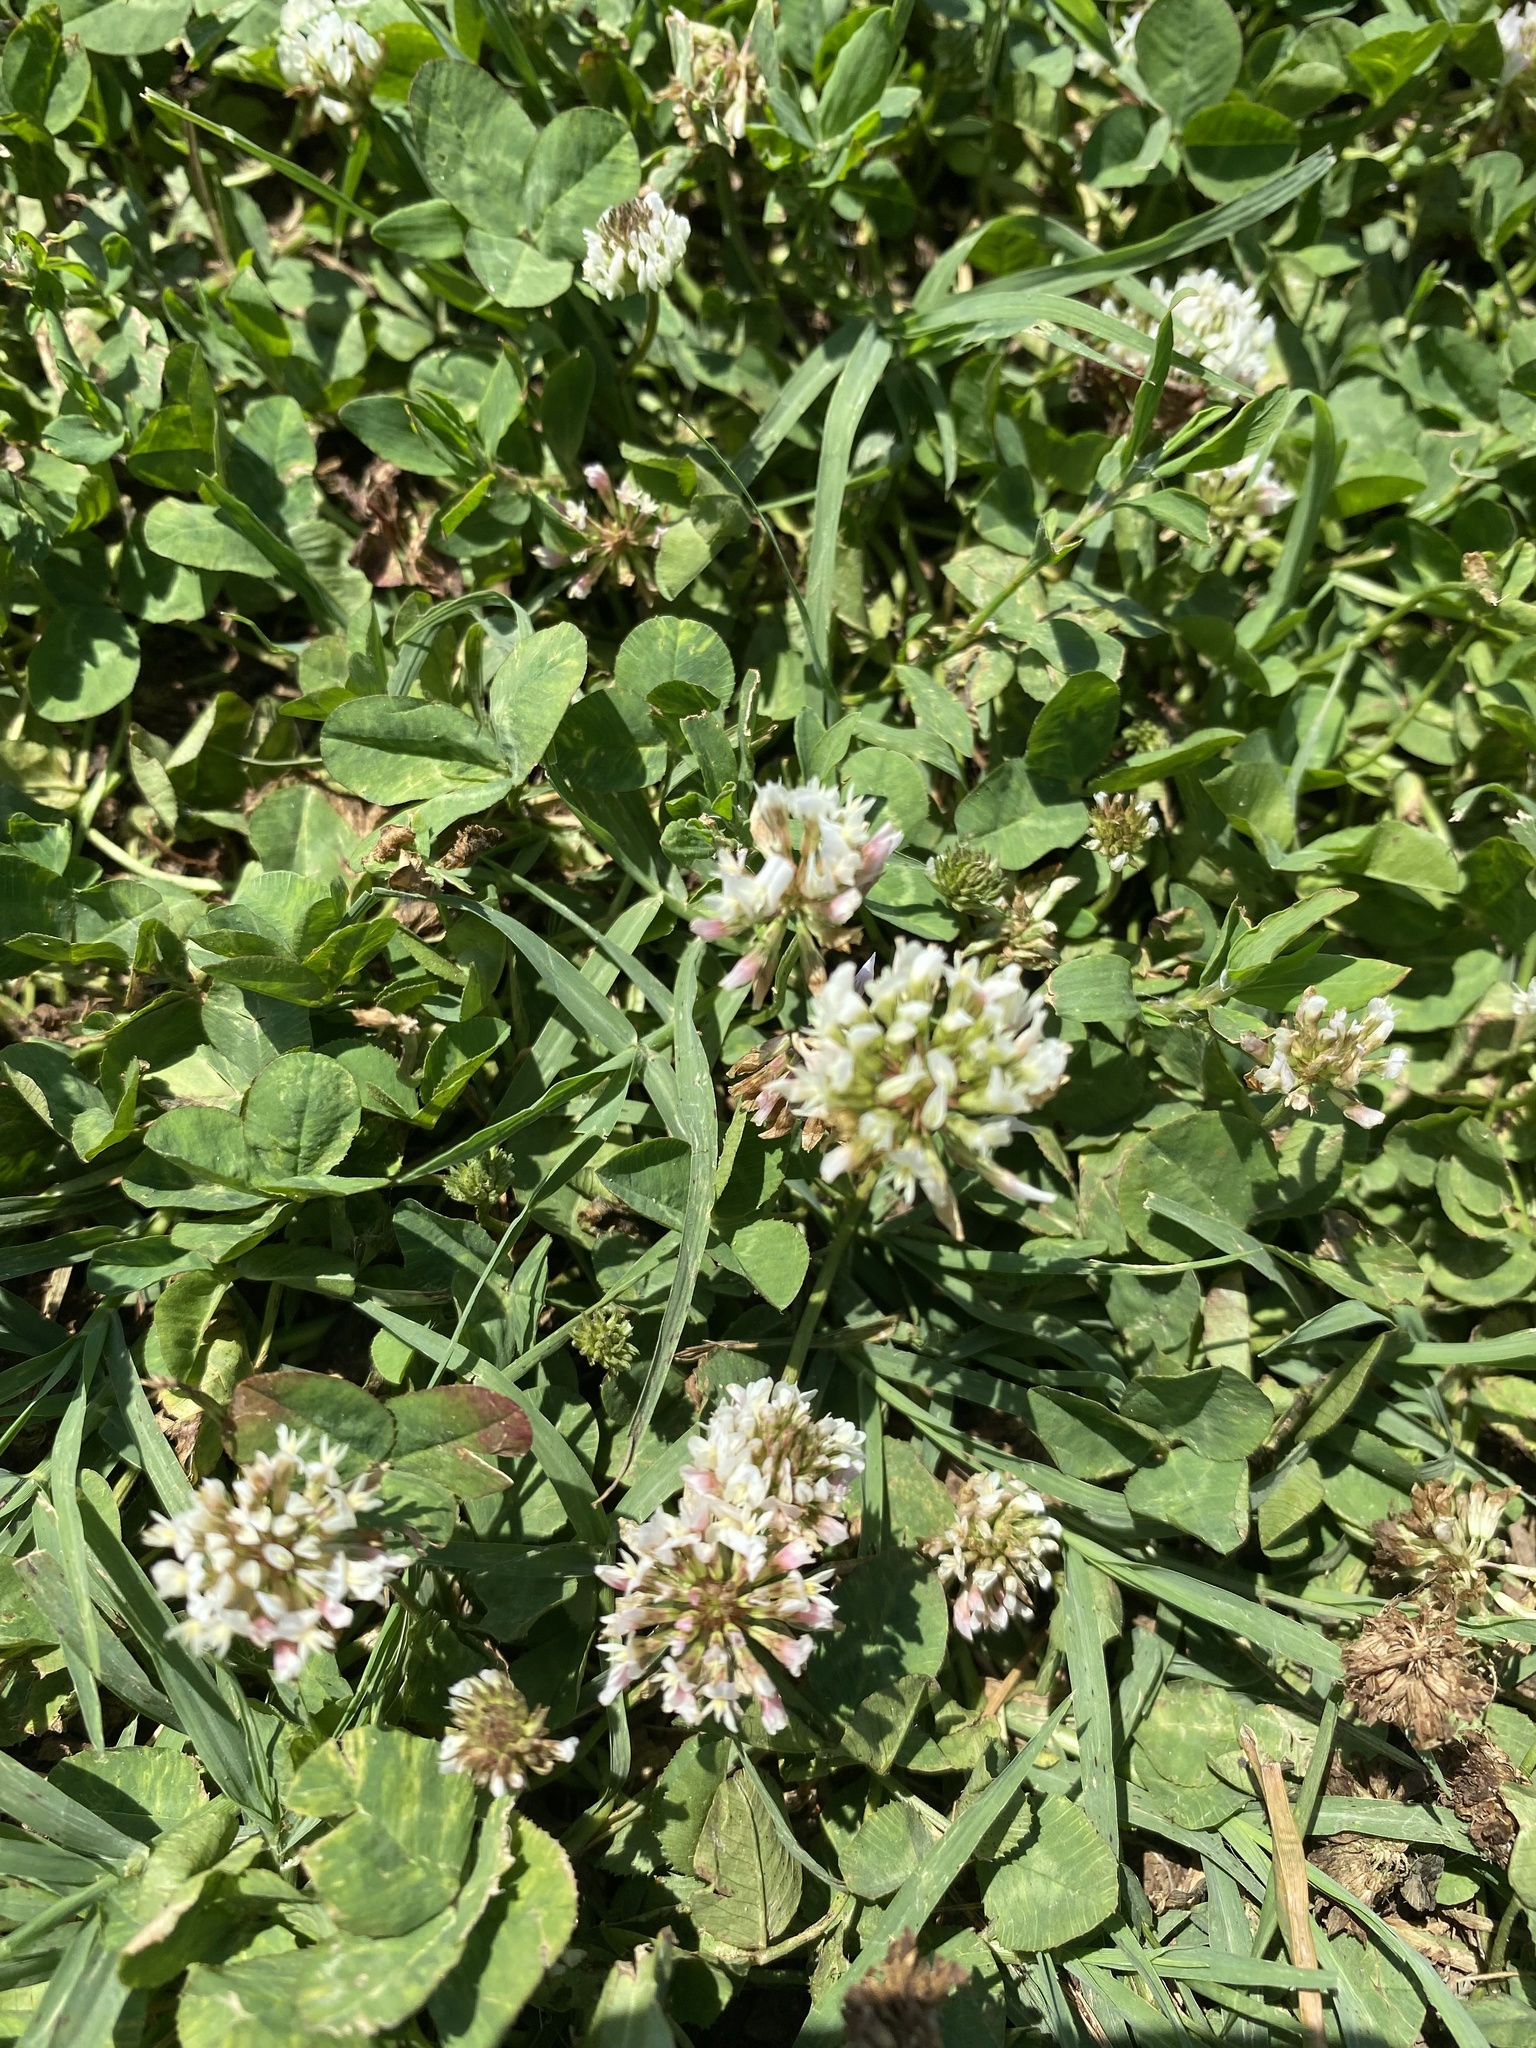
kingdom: Plantae
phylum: Tracheophyta
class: Magnoliopsida
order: Fabales
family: Fabaceae
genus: Trifolium
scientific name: Trifolium repens
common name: White clover
